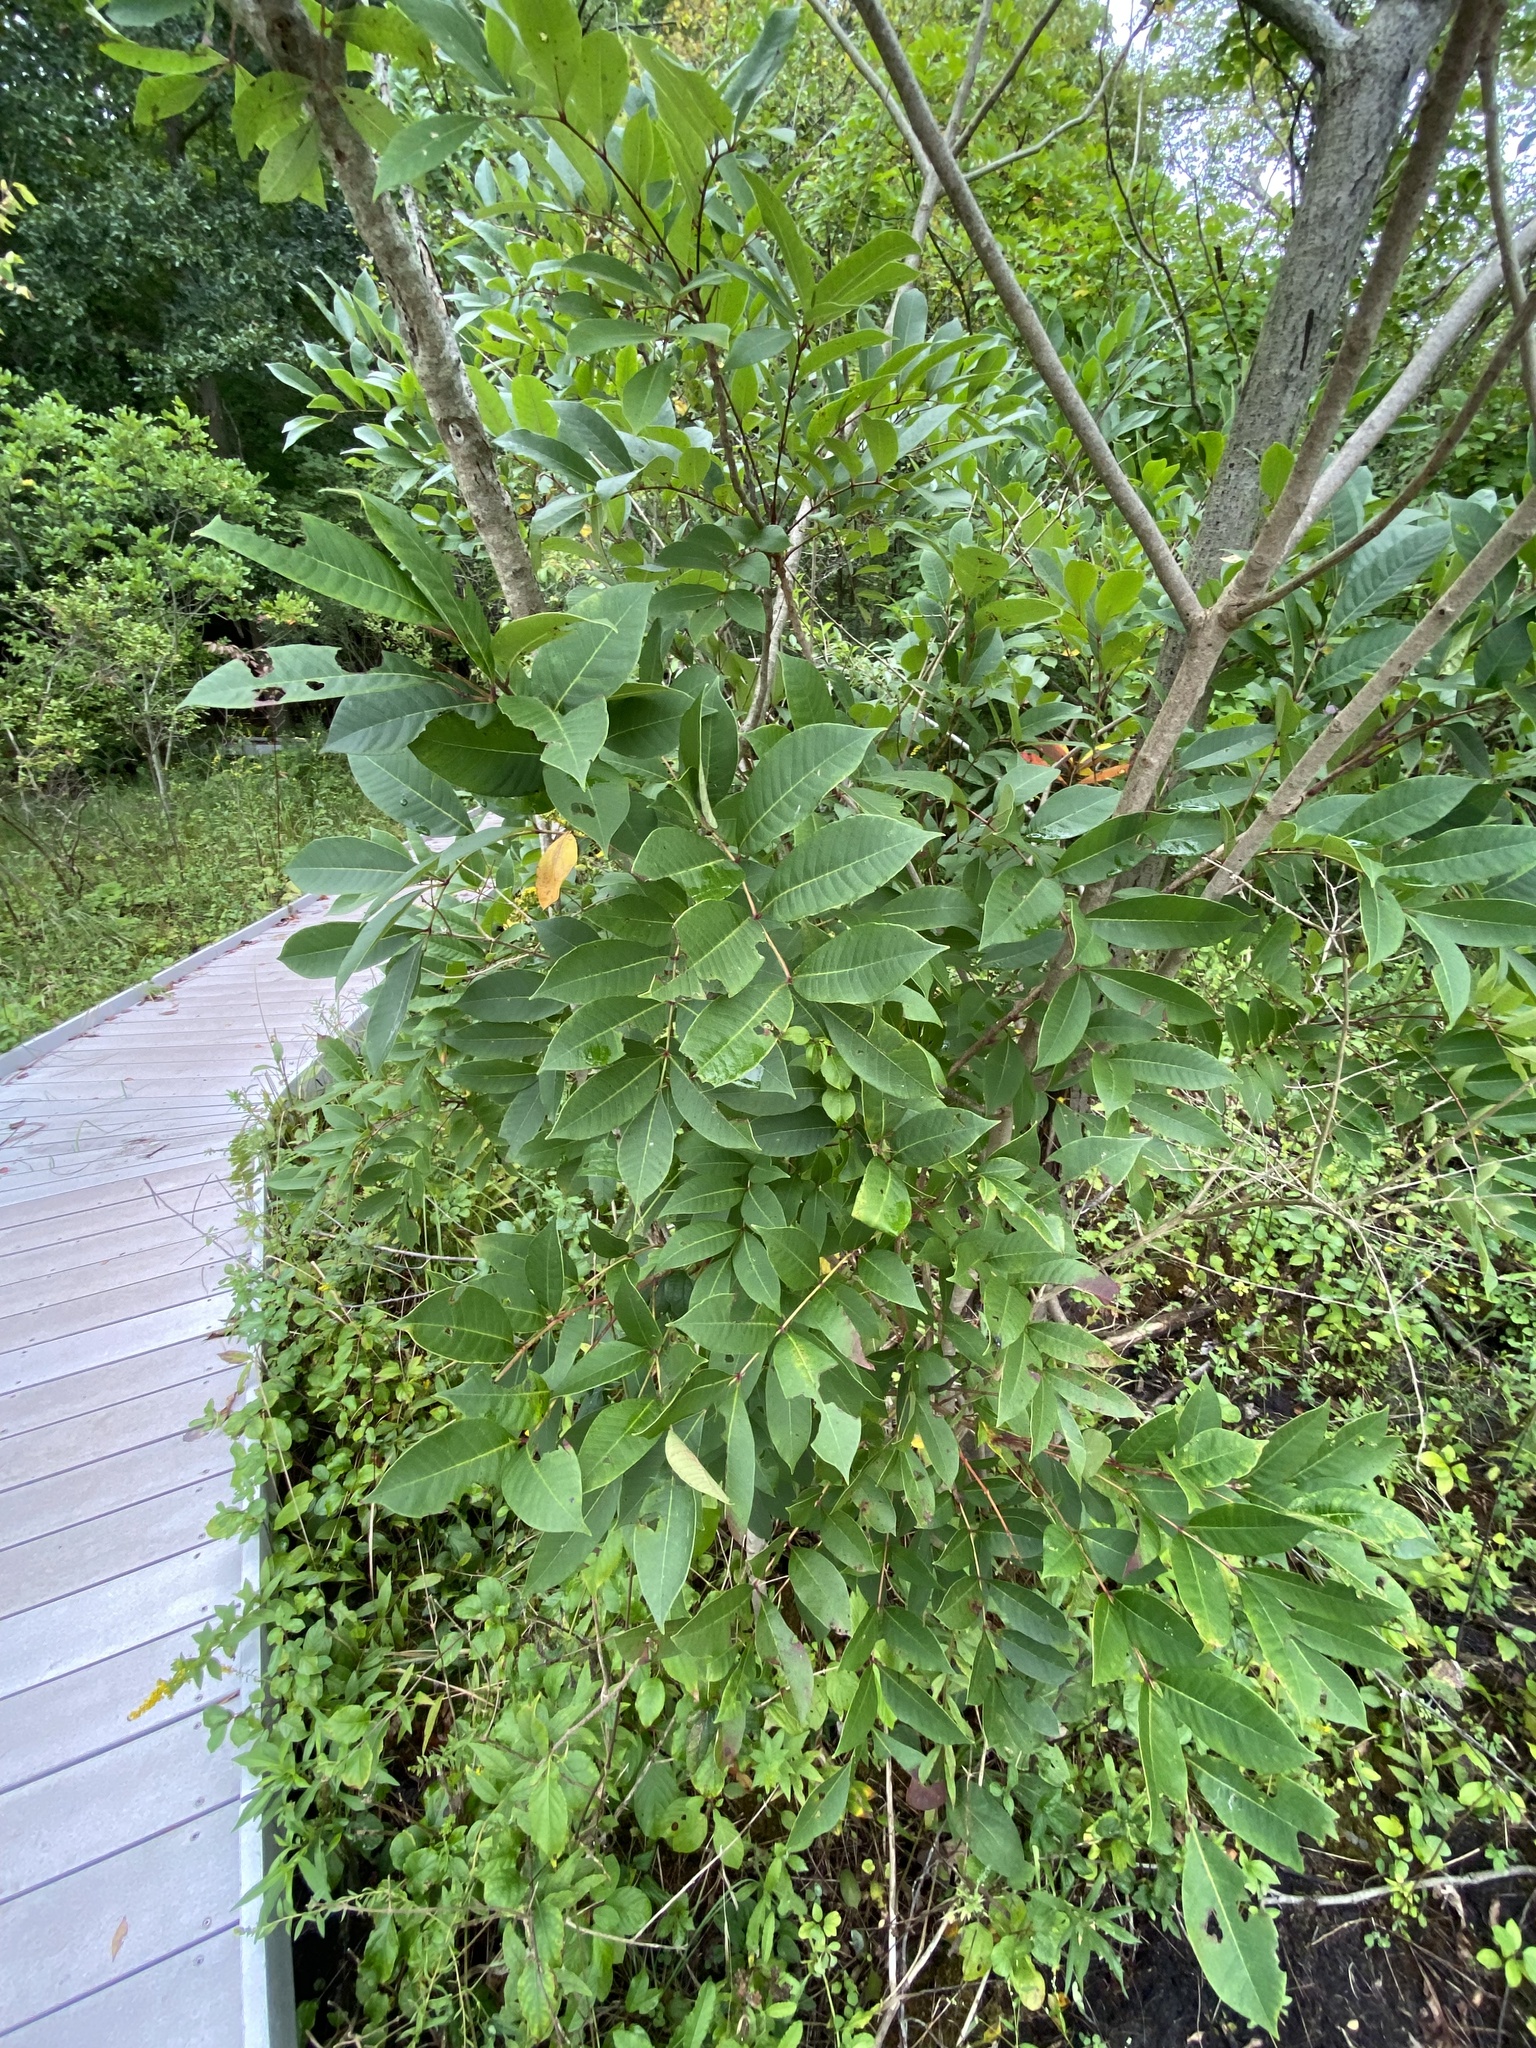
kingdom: Plantae
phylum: Tracheophyta
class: Magnoliopsida
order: Sapindales
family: Anacardiaceae
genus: Toxicodendron
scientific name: Toxicodendron vernix
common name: Poison sumac
